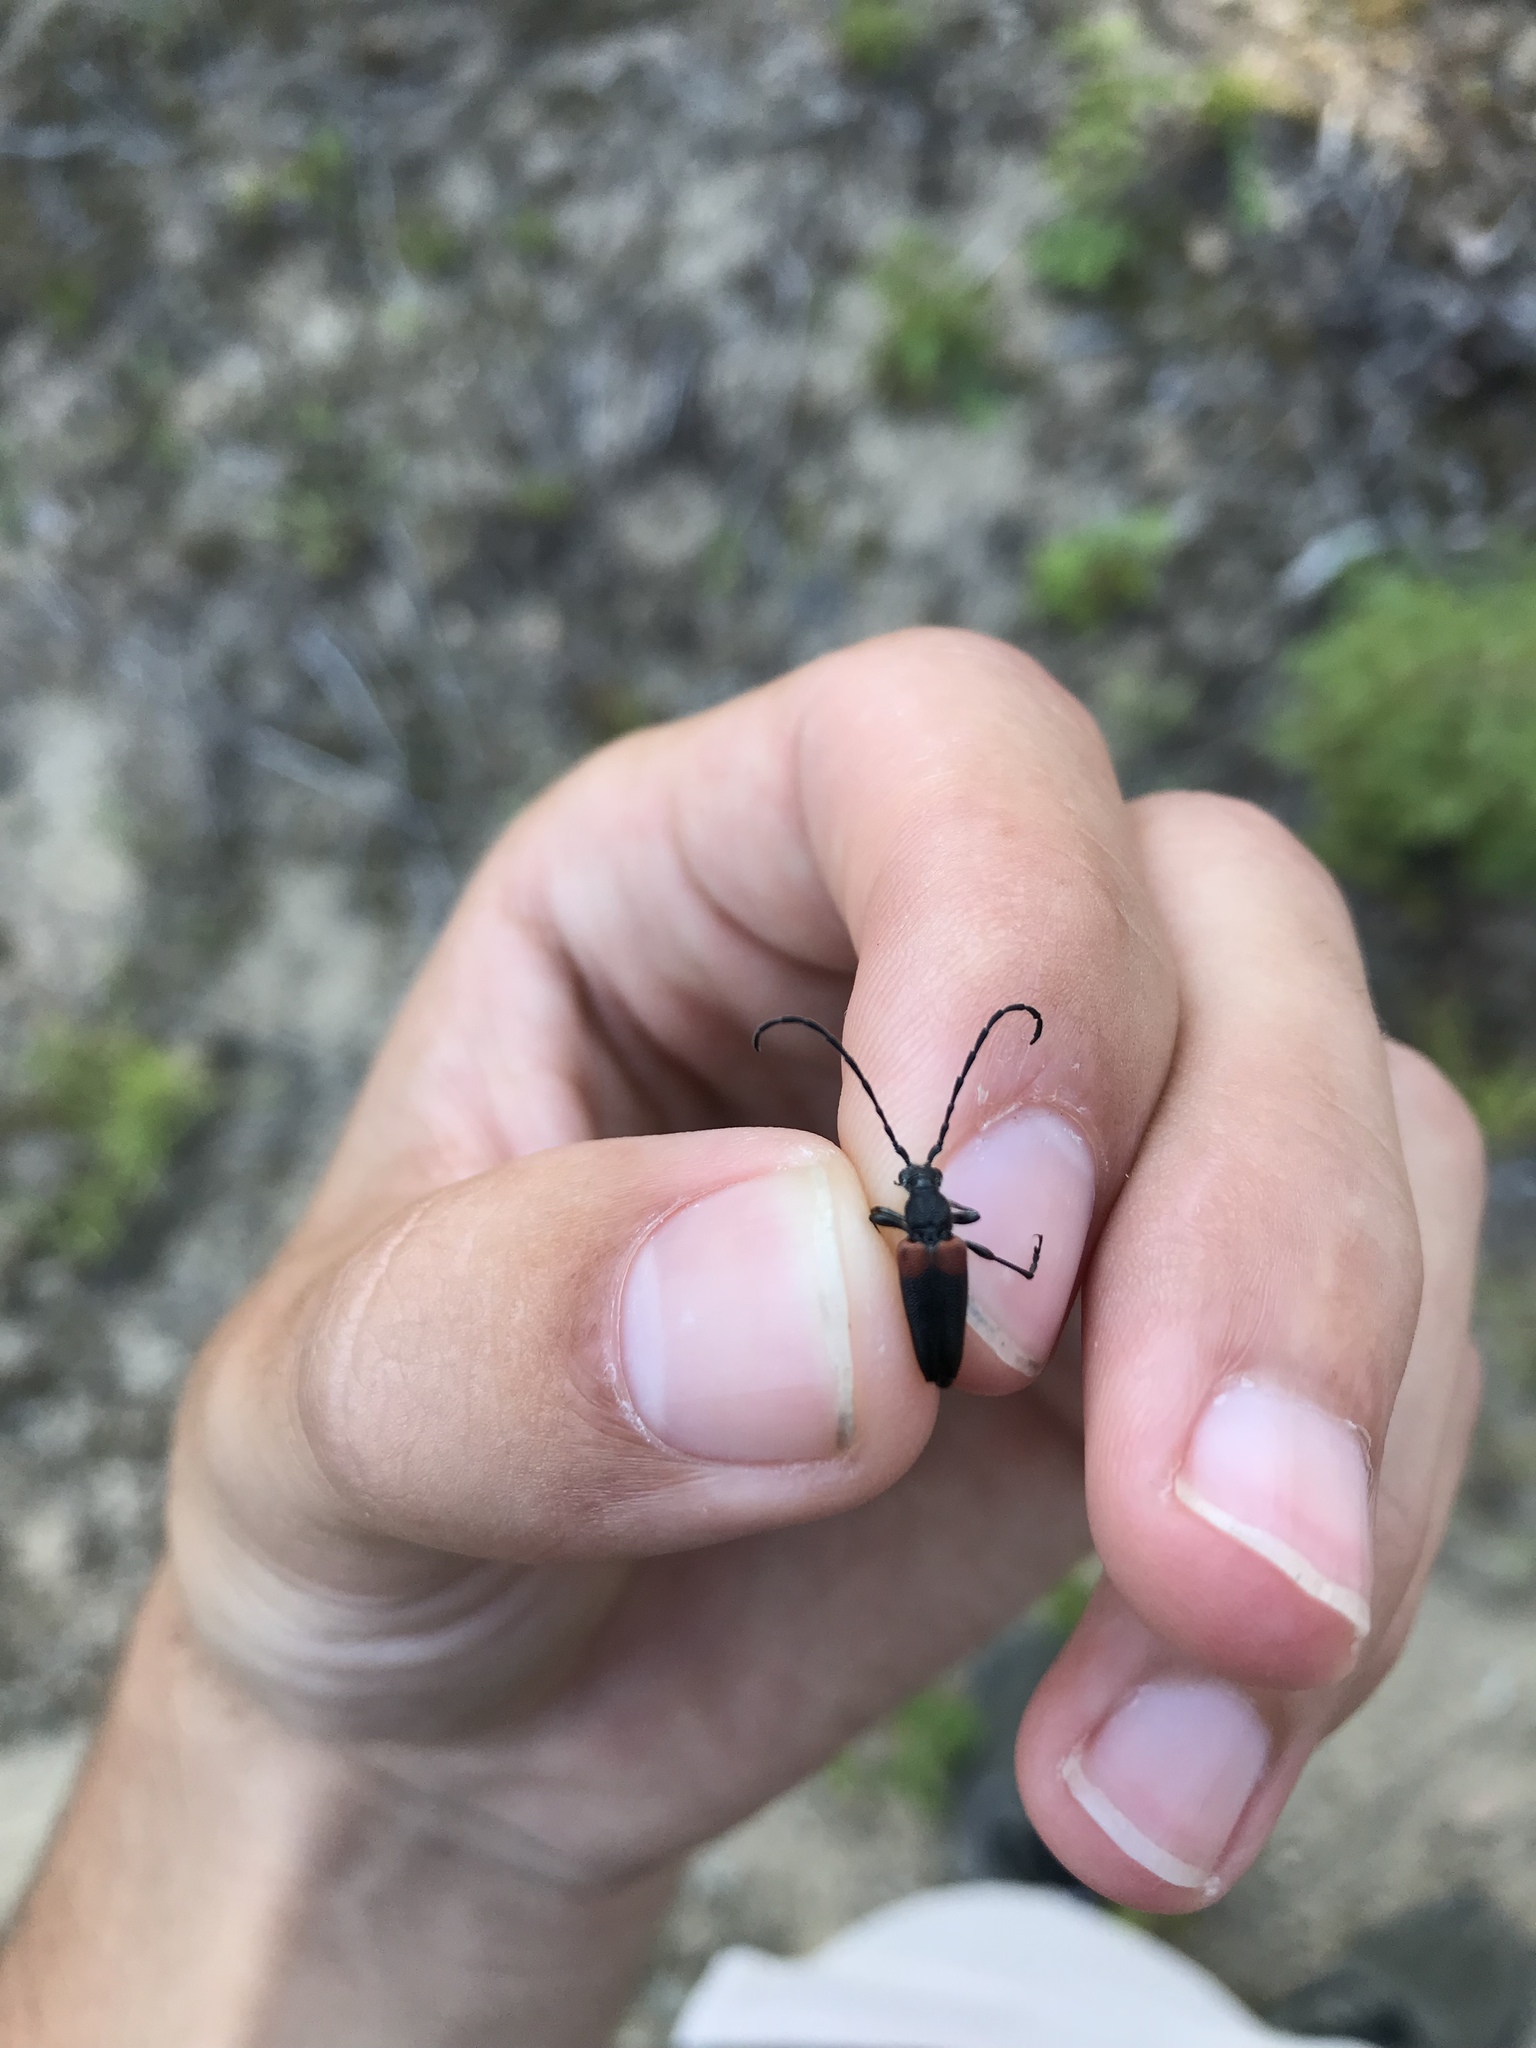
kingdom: Animalia
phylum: Arthropoda
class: Insecta
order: Coleoptera
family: Cerambycidae
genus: Stictoleptura
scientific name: Stictoleptura canadensis
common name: Red-shouldered pine borer
